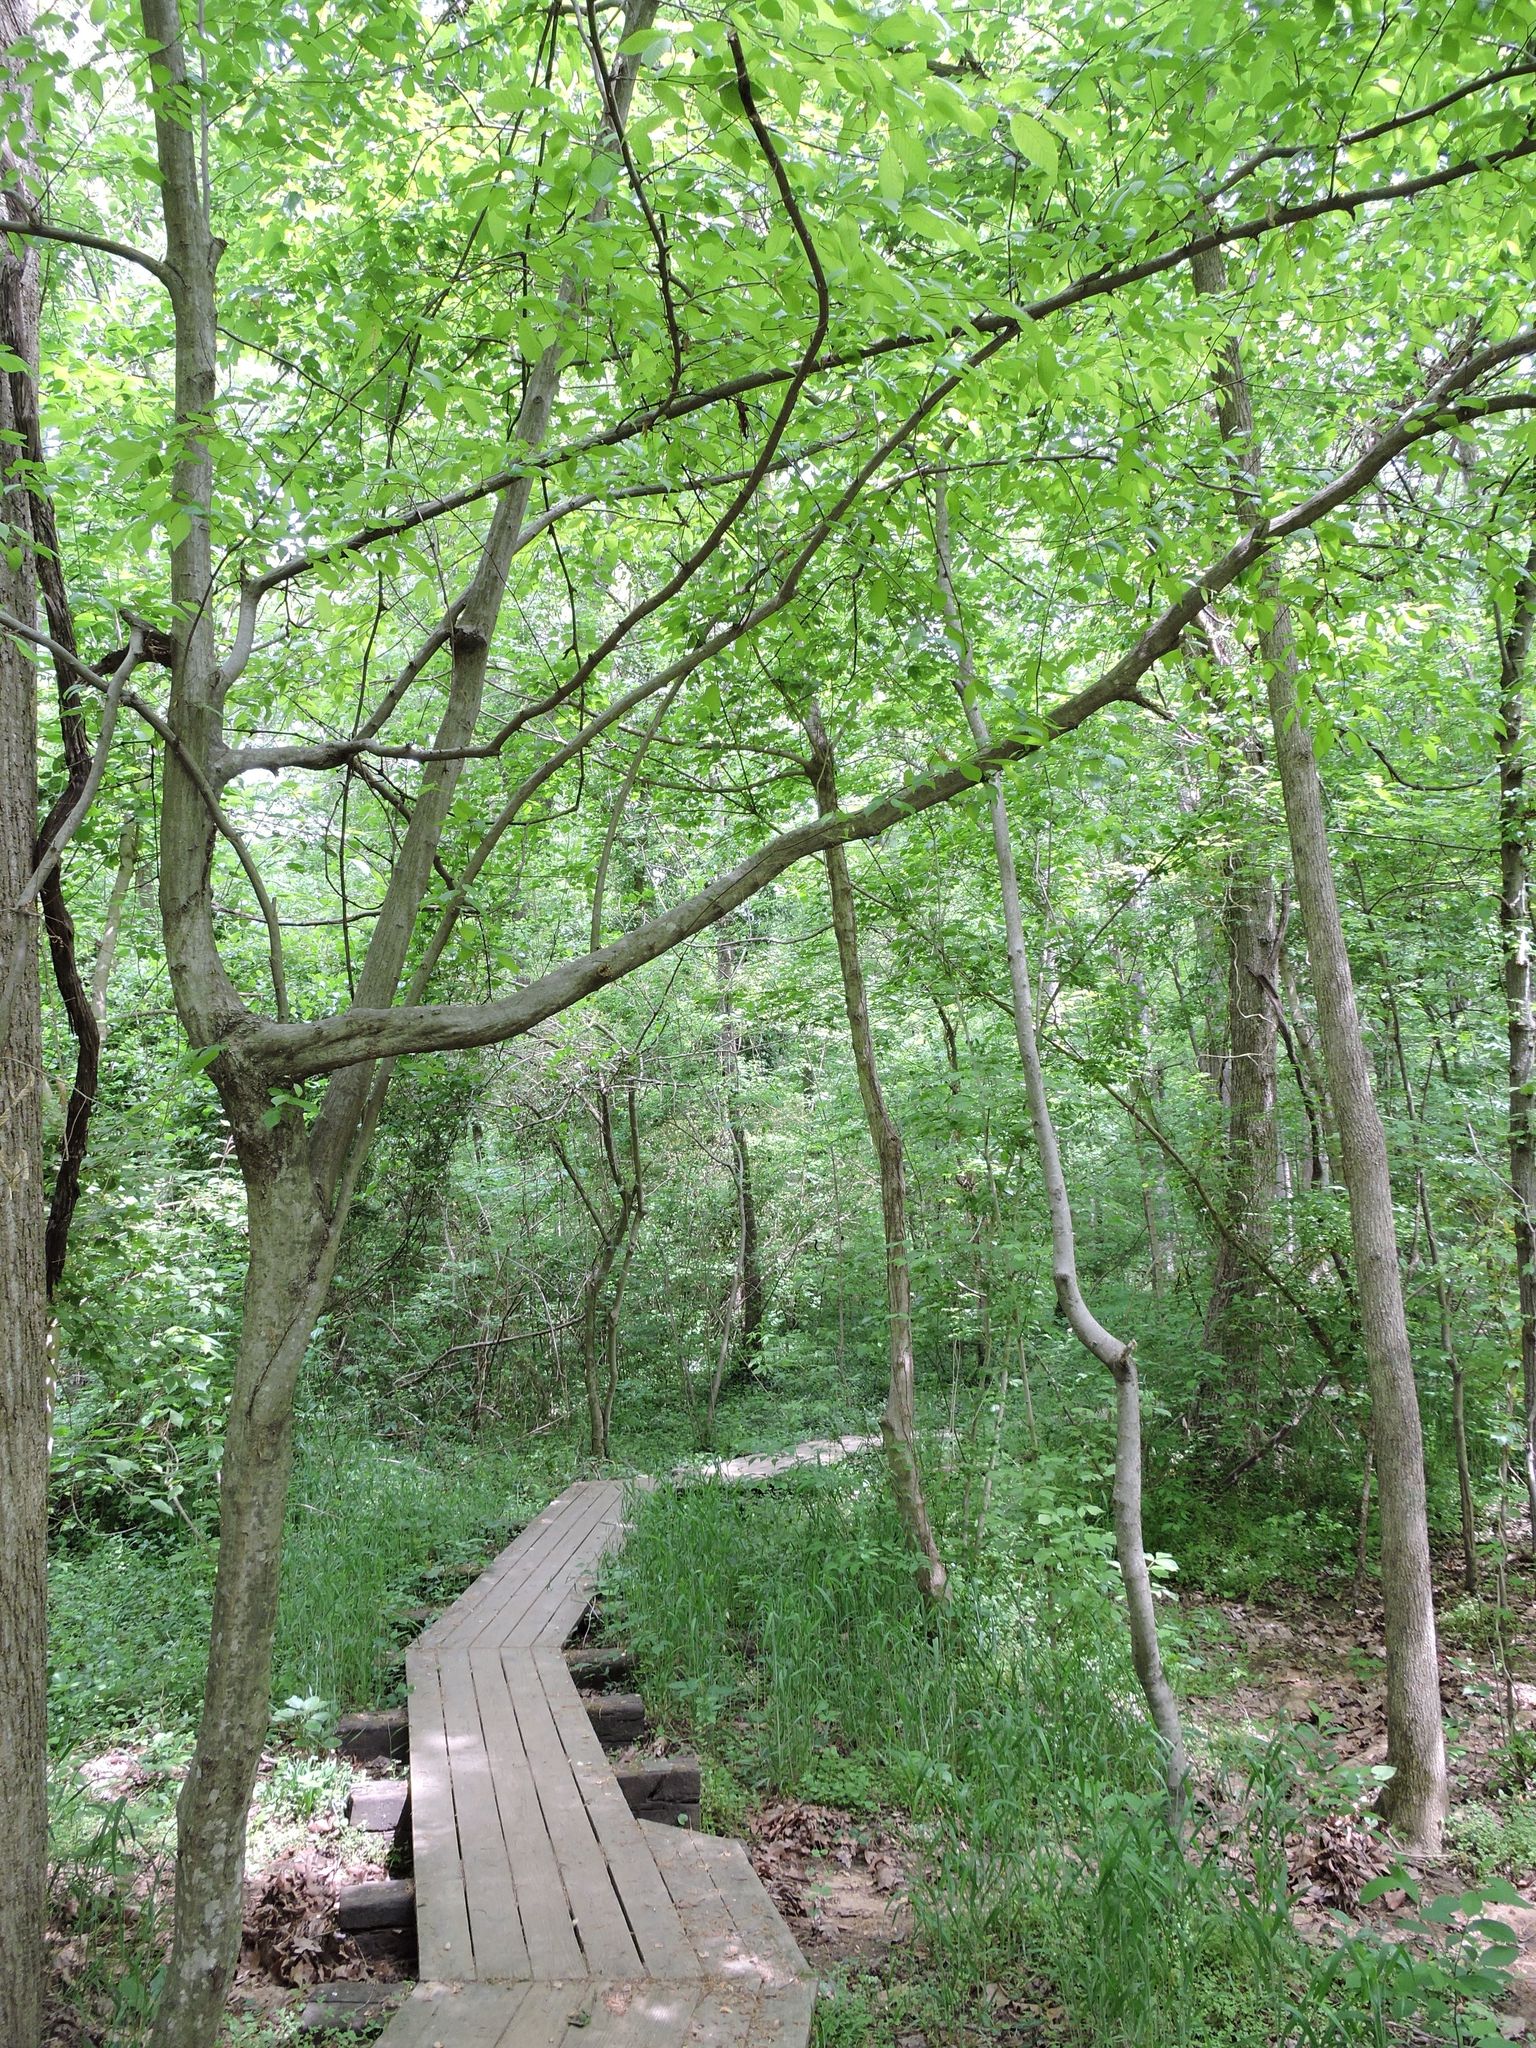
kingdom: Plantae
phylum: Tracheophyta
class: Magnoliopsida
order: Fagales
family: Betulaceae
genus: Carpinus
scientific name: Carpinus caroliniana
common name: American hornbeam
